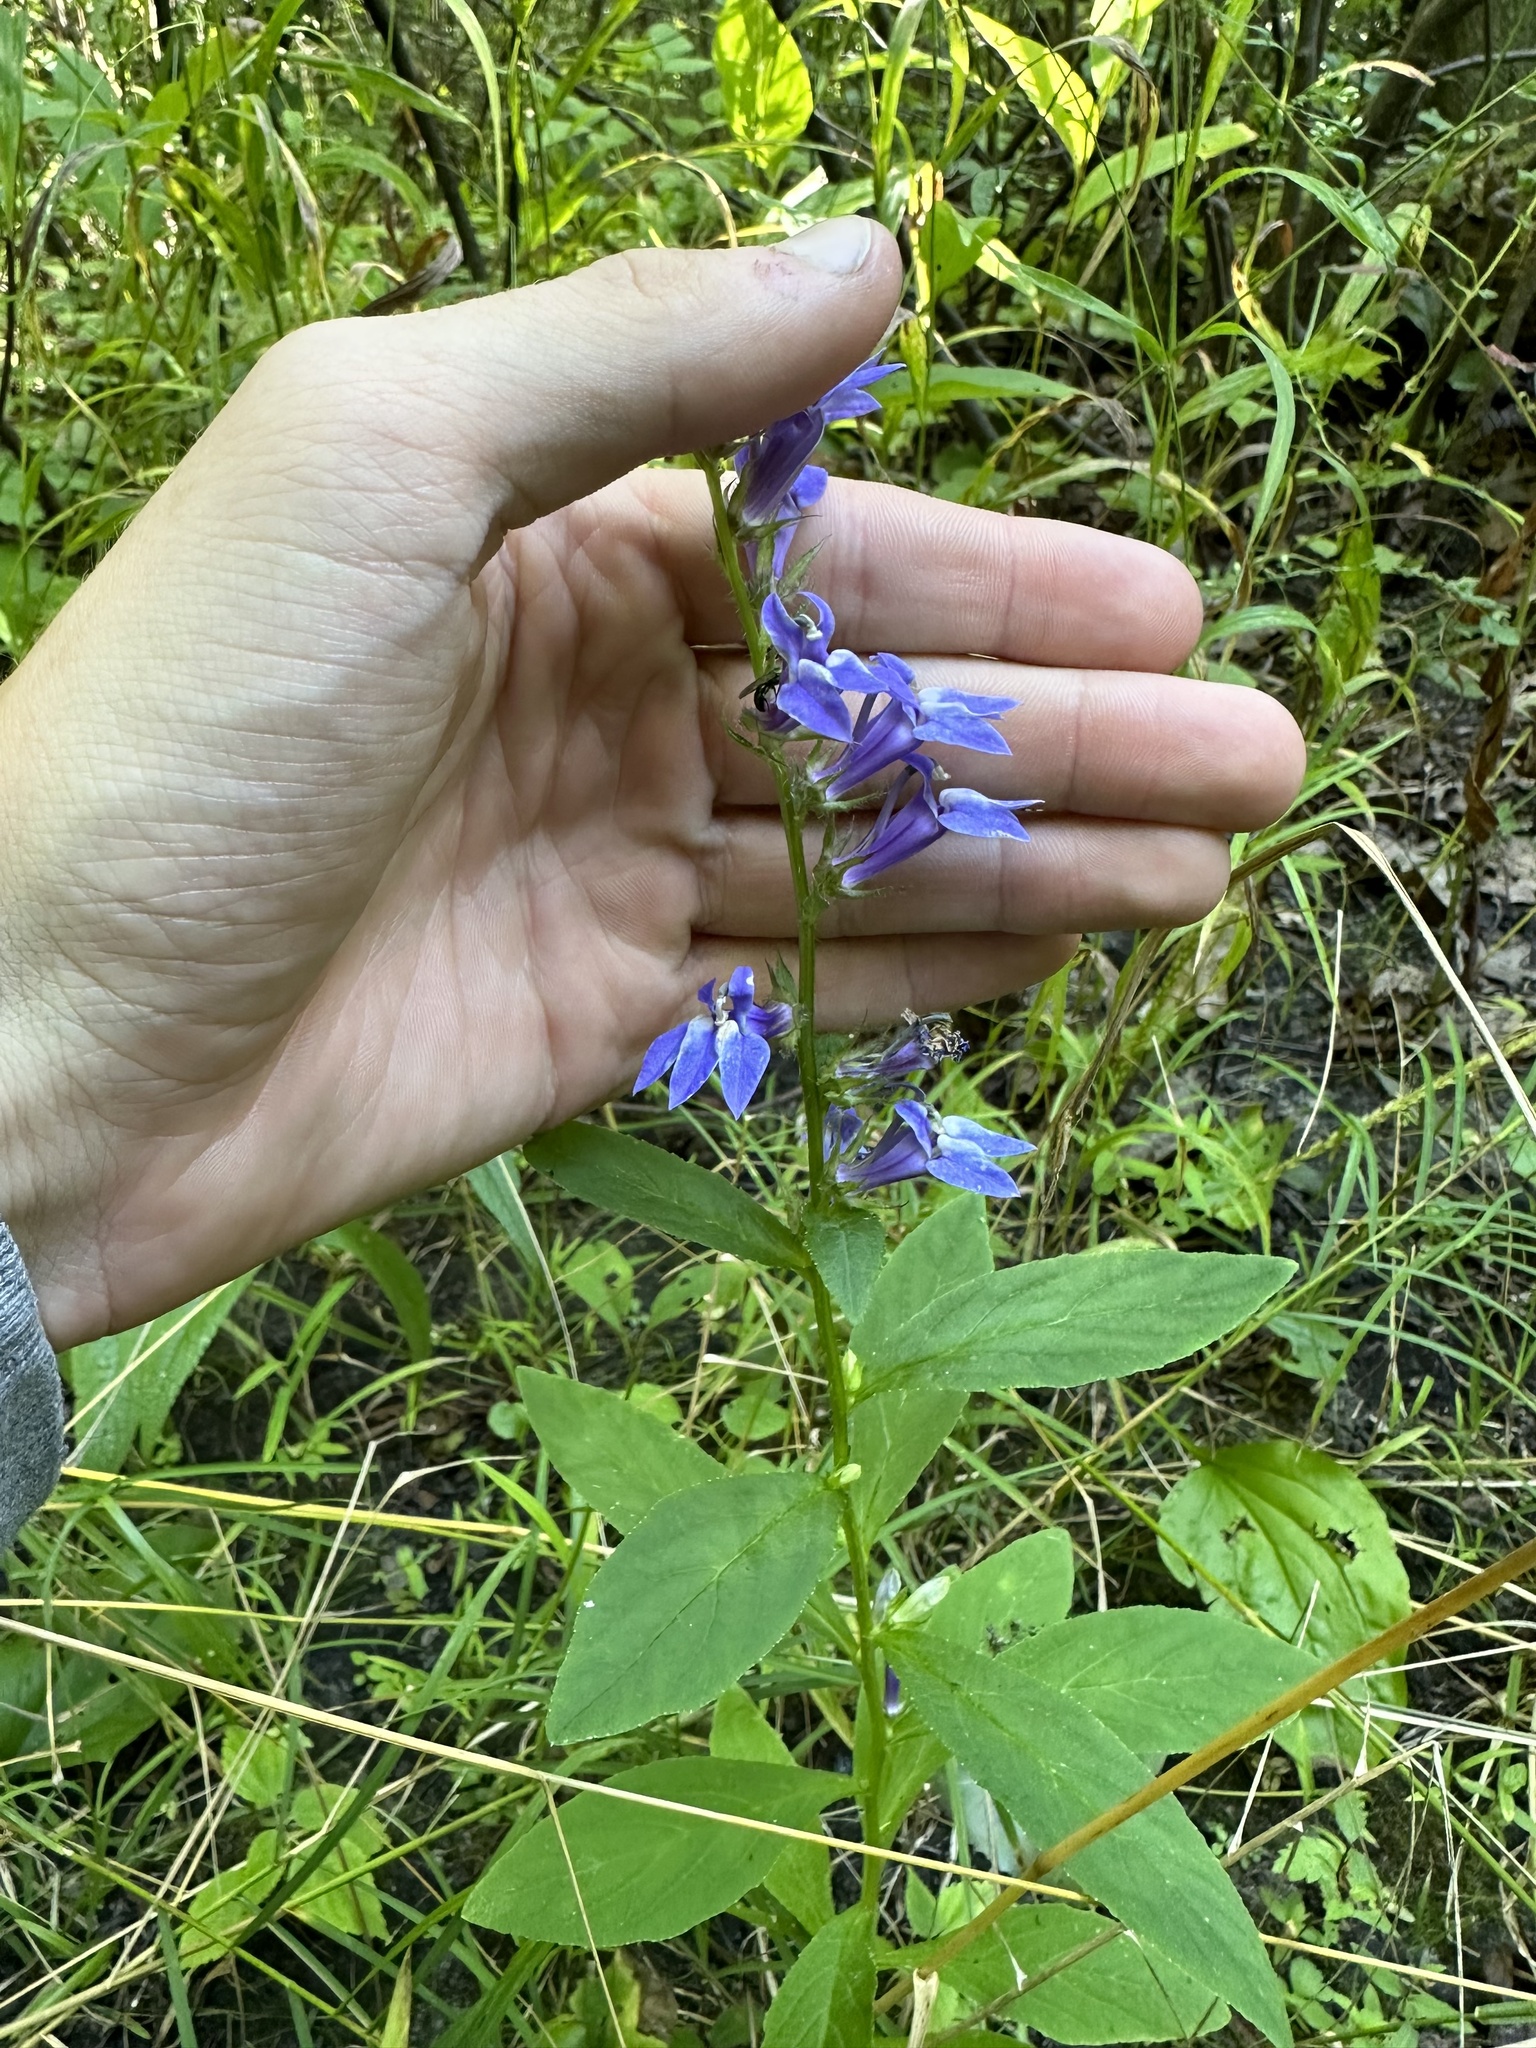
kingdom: Plantae
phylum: Tracheophyta
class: Magnoliopsida
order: Asterales
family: Campanulaceae
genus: Lobelia
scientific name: Lobelia siphilitica
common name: Great lobelia
